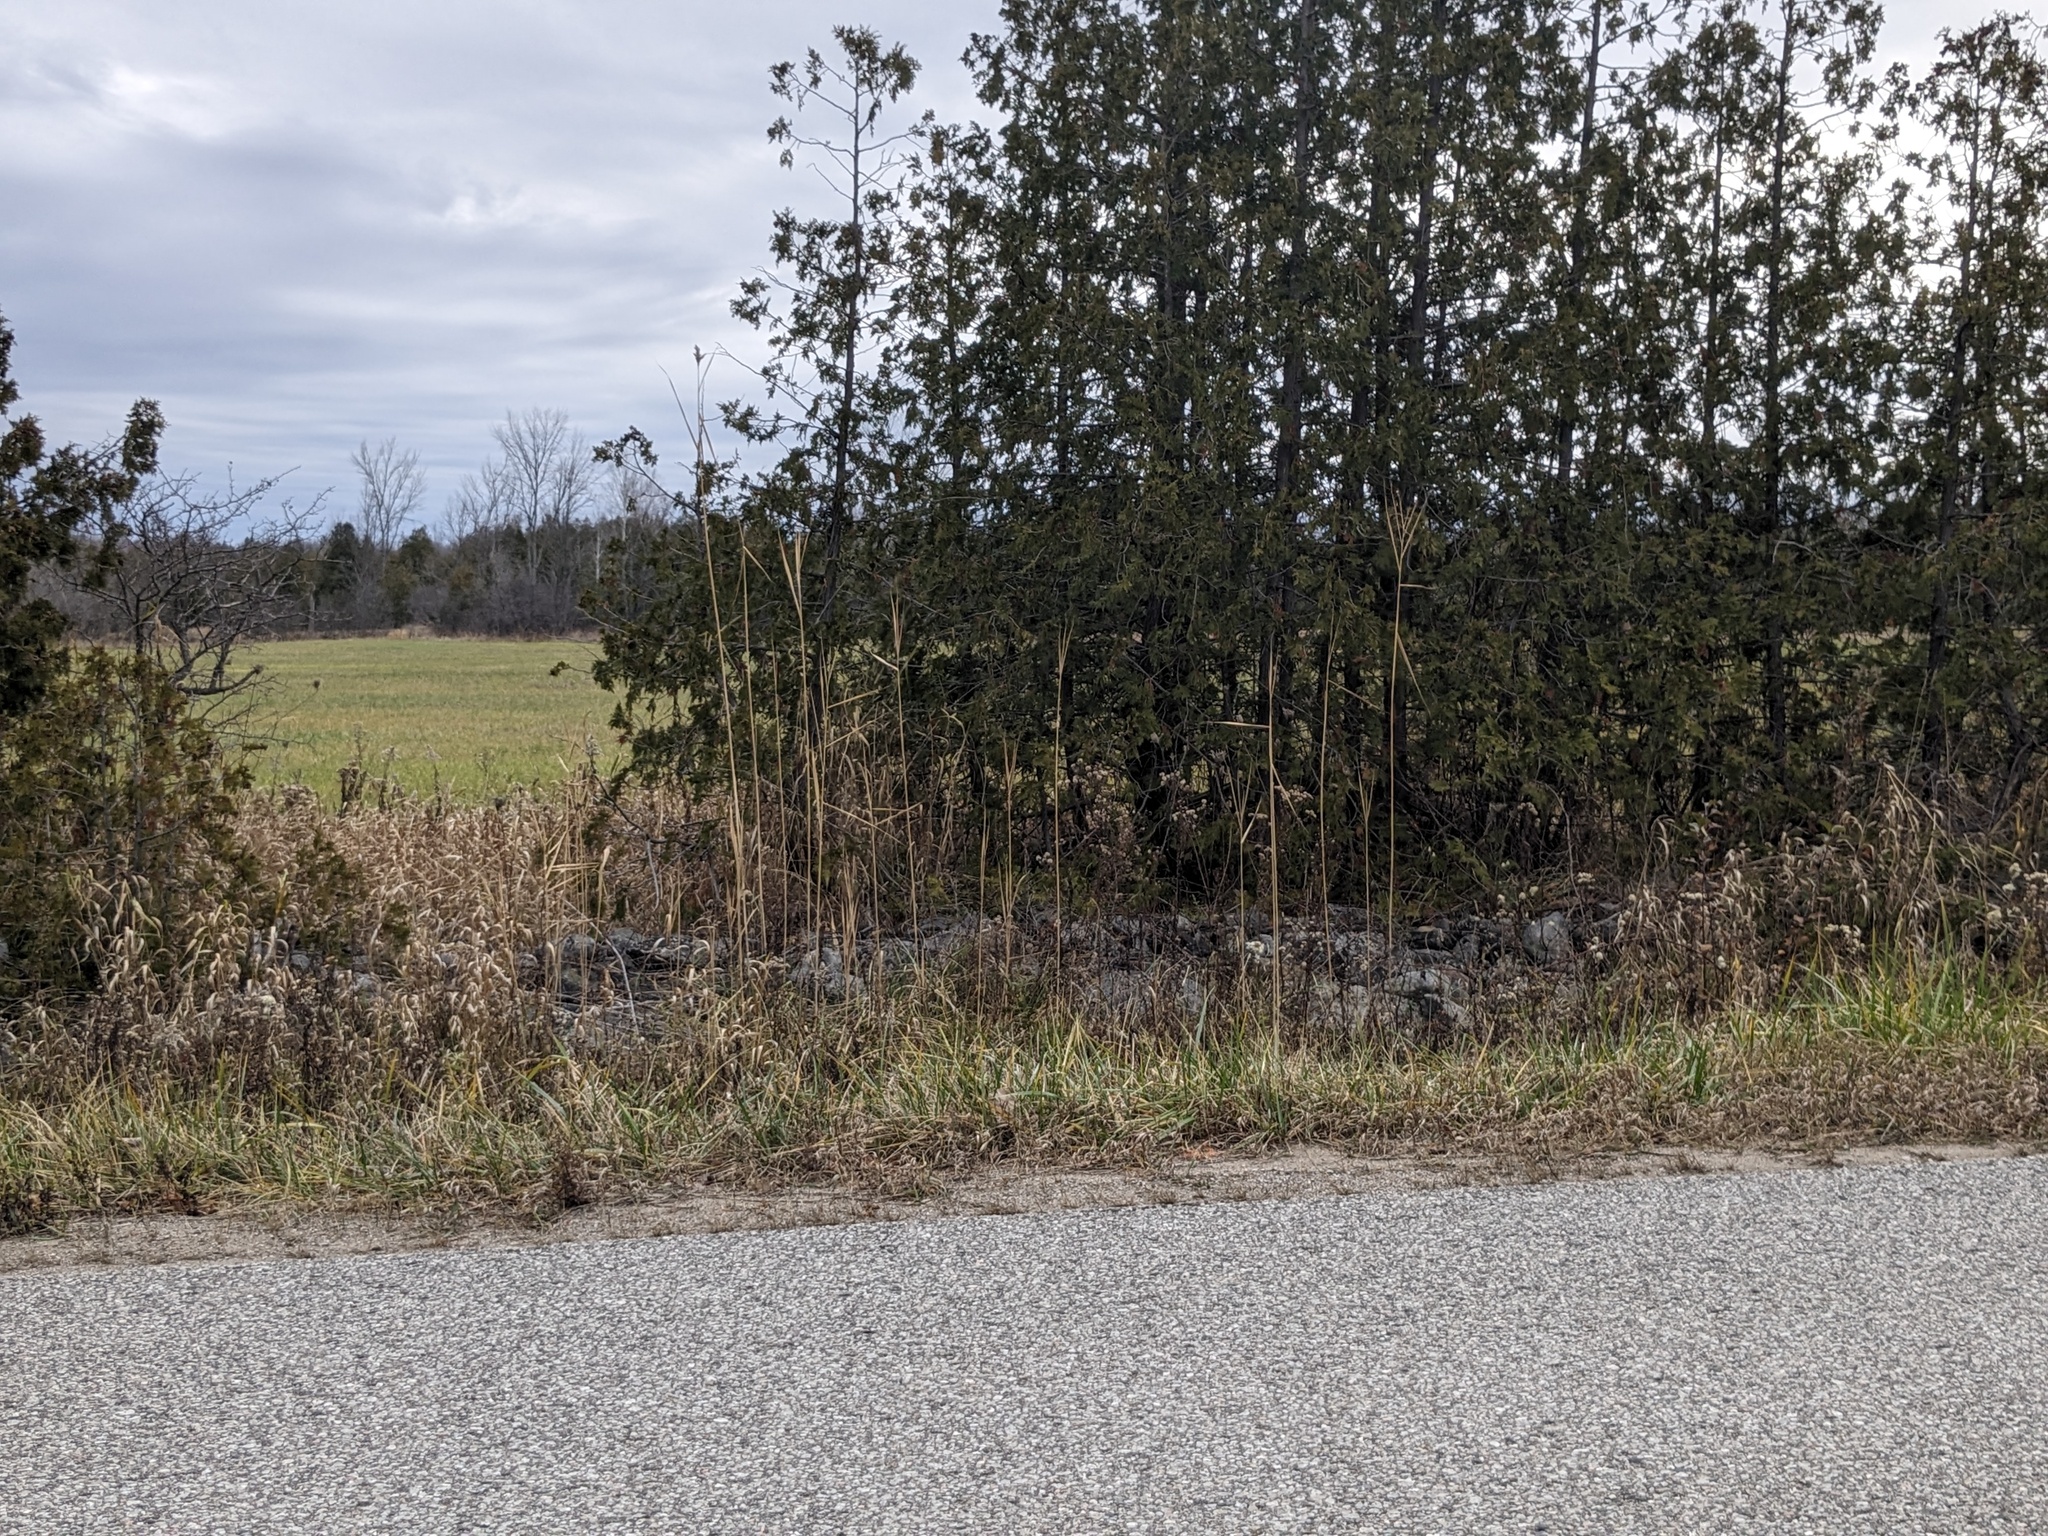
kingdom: Plantae
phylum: Tracheophyta
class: Liliopsida
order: Poales
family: Poaceae
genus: Phragmites
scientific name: Phragmites australis
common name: Common reed
